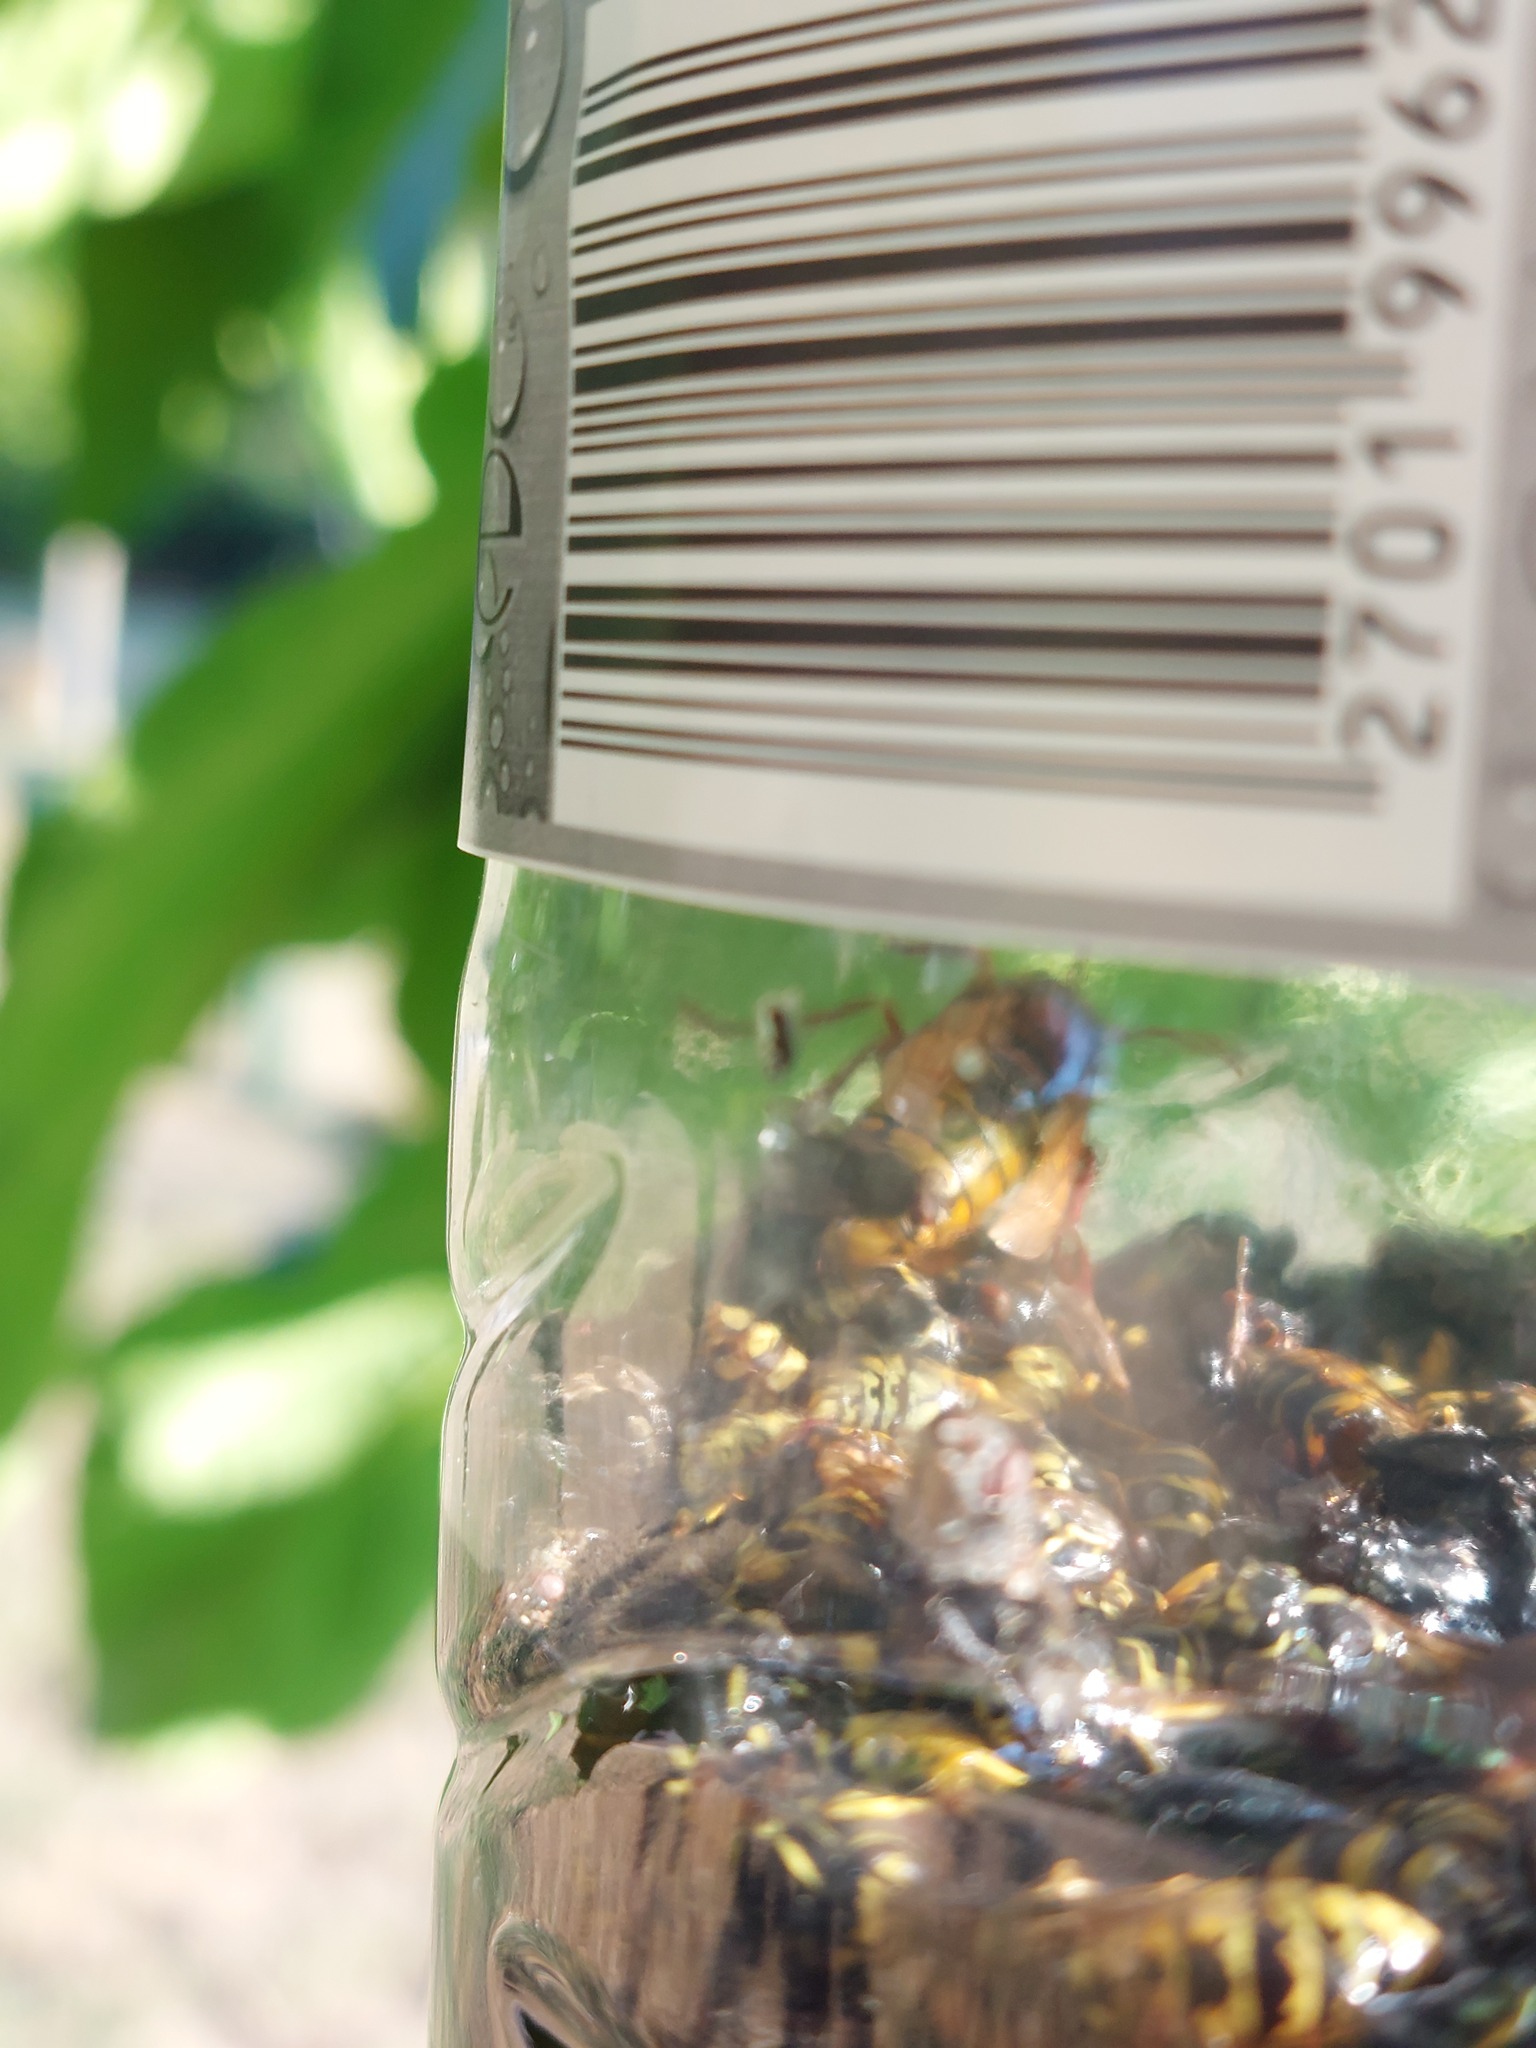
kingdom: Animalia
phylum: Arthropoda
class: Insecta
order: Hymenoptera
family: Vespidae
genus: Vespa
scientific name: Vespa crabro
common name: Hornet
